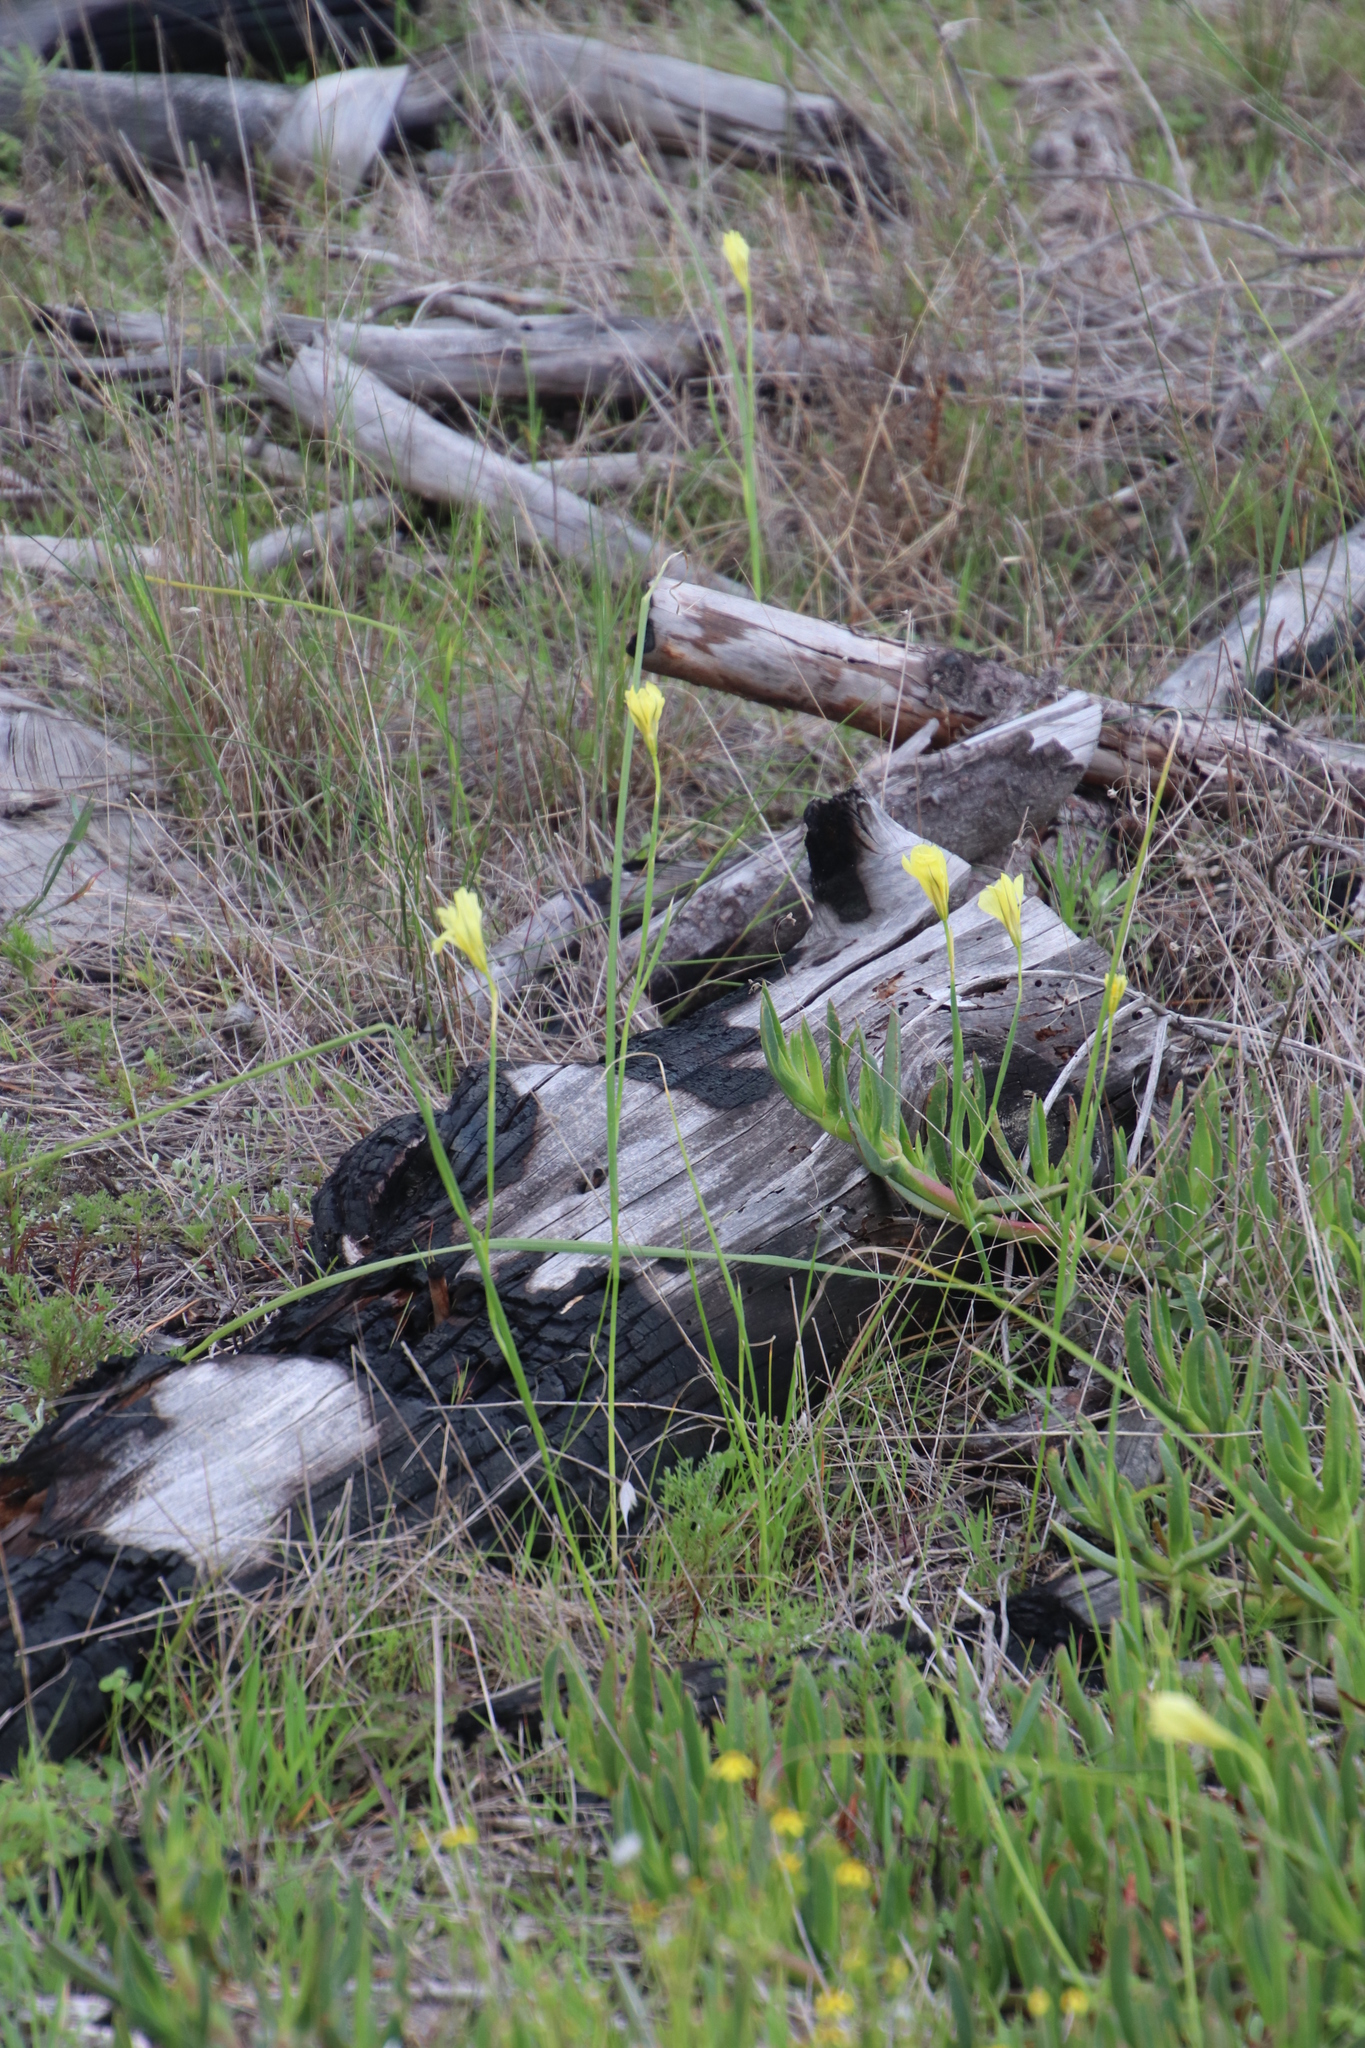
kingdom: Plantae
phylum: Tracheophyta
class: Liliopsida
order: Asparagales
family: Iridaceae
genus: Moraea
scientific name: Moraea collina
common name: Cape-tulip
